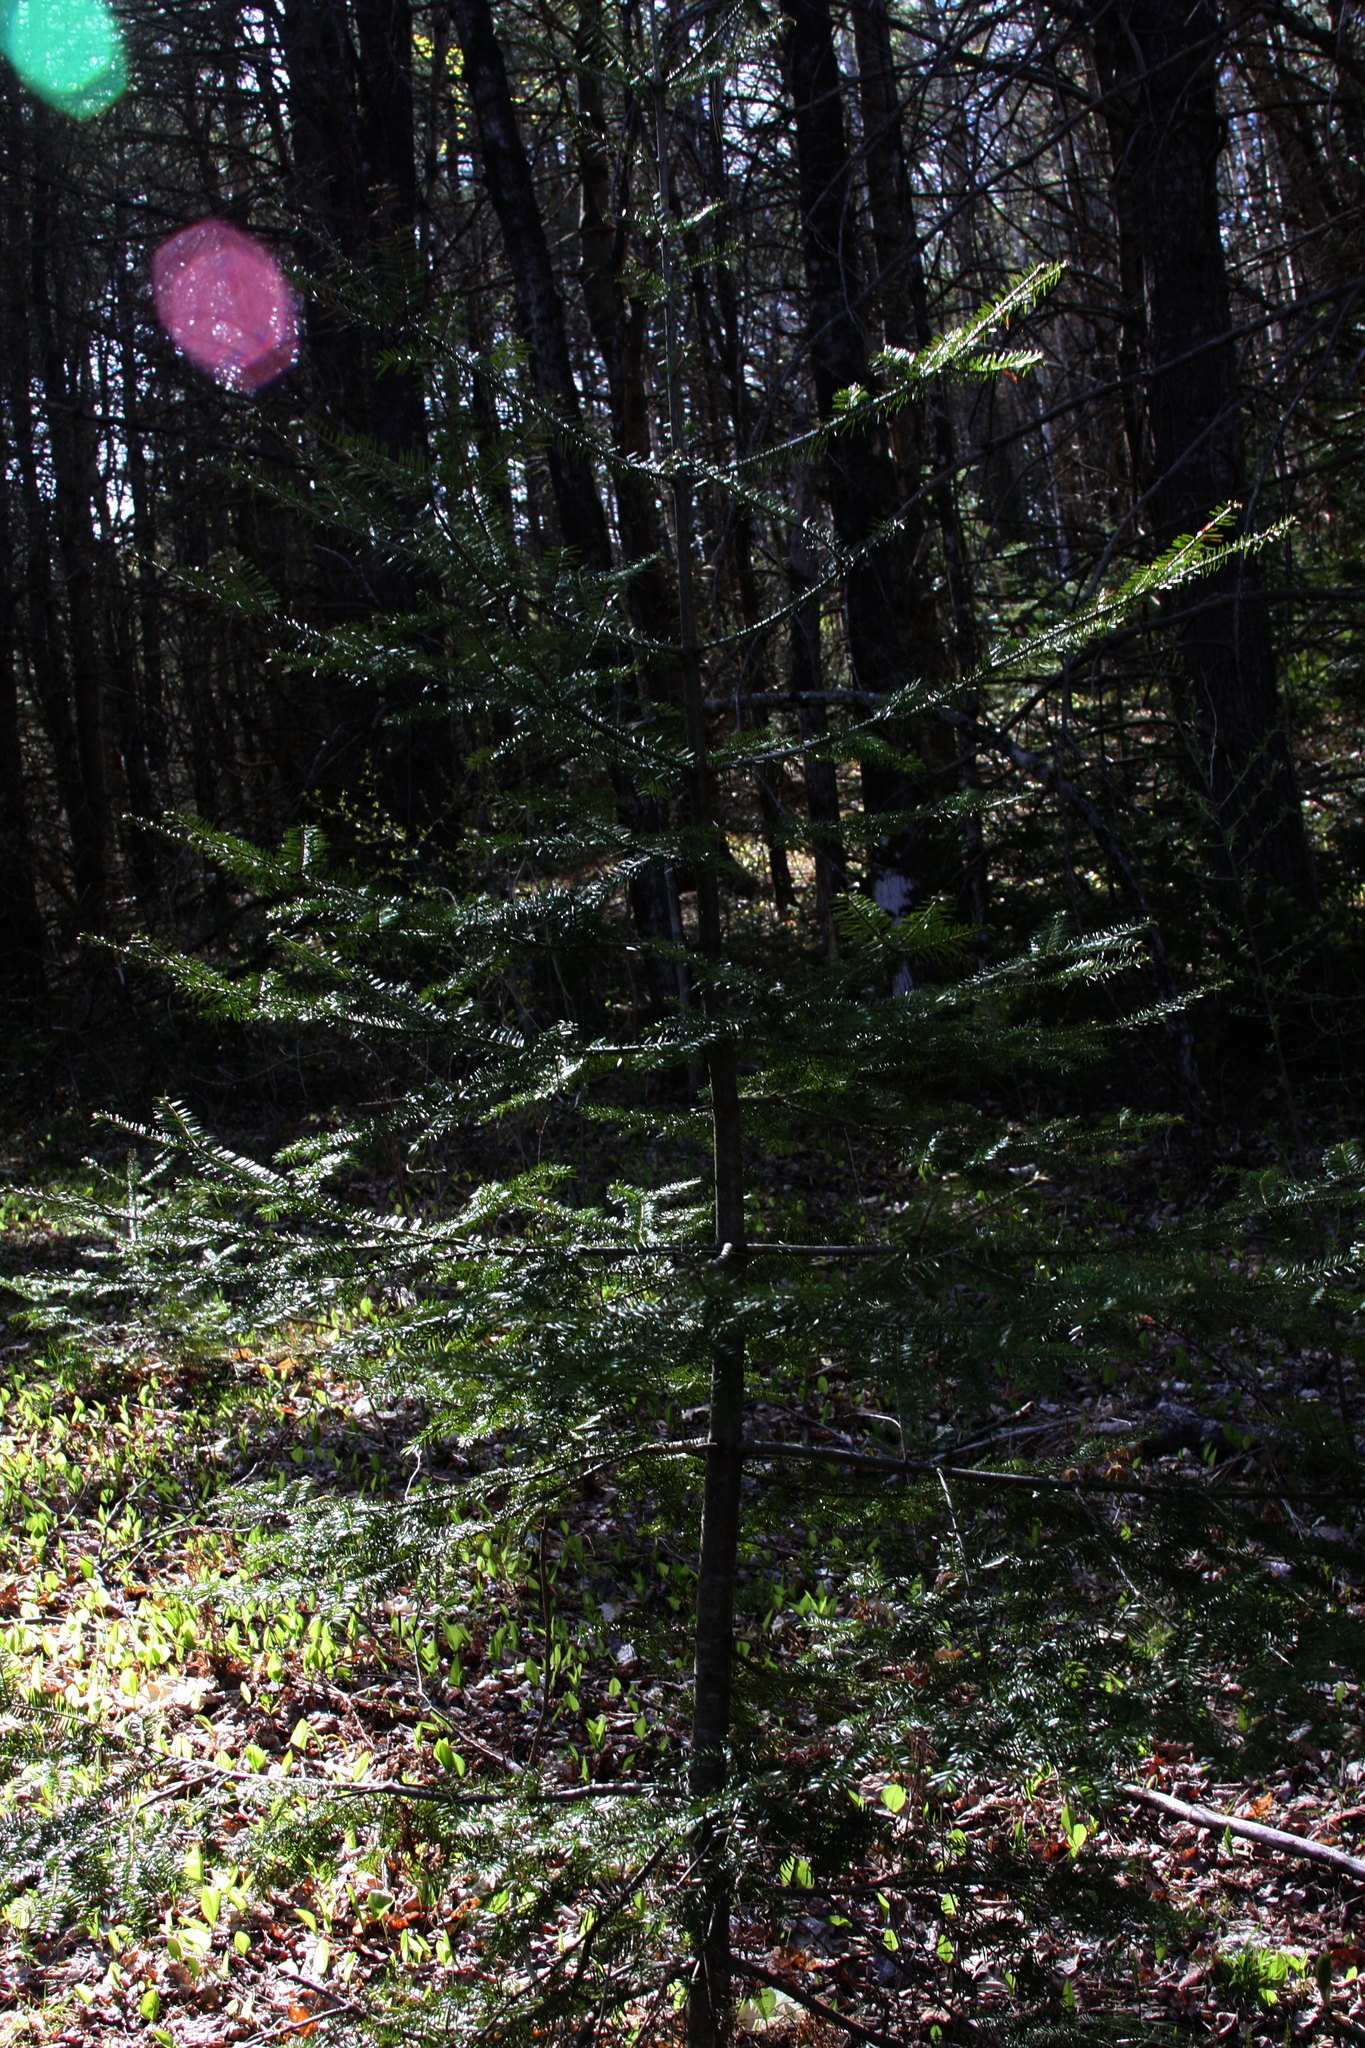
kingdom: Plantae
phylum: Tracheophyta
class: Pinopsida
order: Pinales
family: Pinaceae
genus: Abies
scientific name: Abies balsamea
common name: Balsam fir
